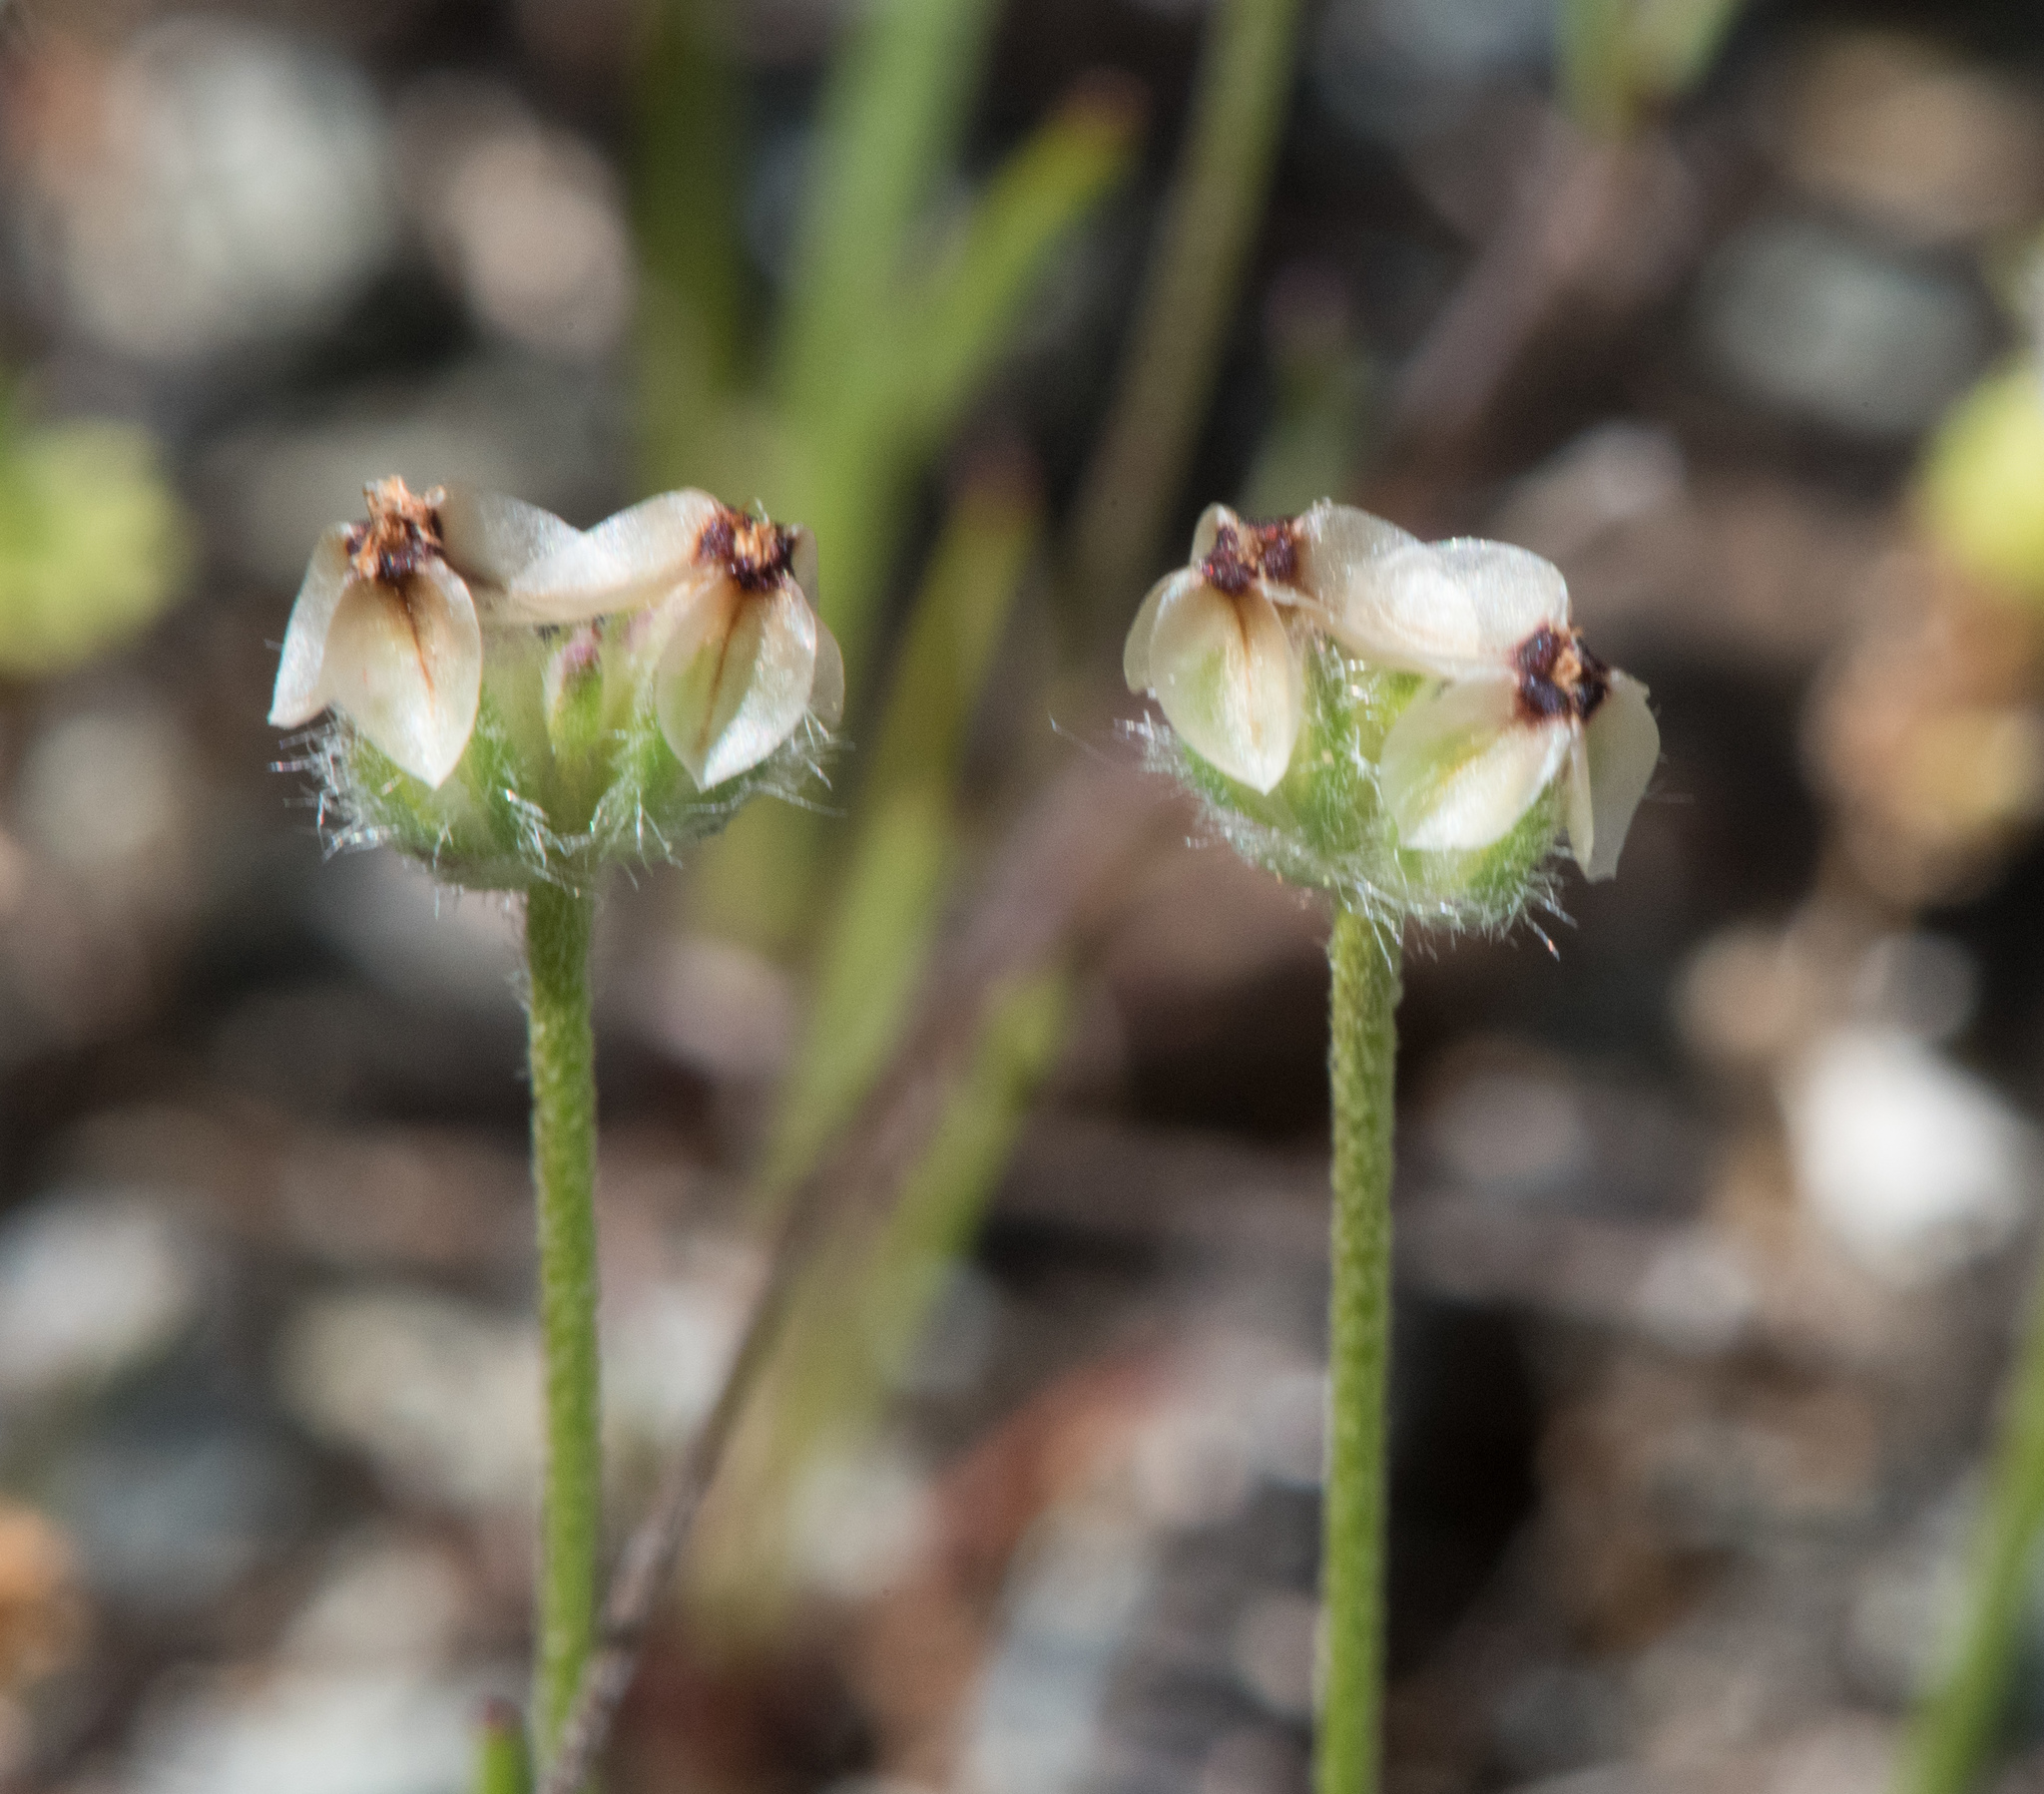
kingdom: Plantae
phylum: Tracheophyta
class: Magnoliopsida
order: Lamiales
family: Plantaginaceae
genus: Plantago
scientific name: Plantago erecta
